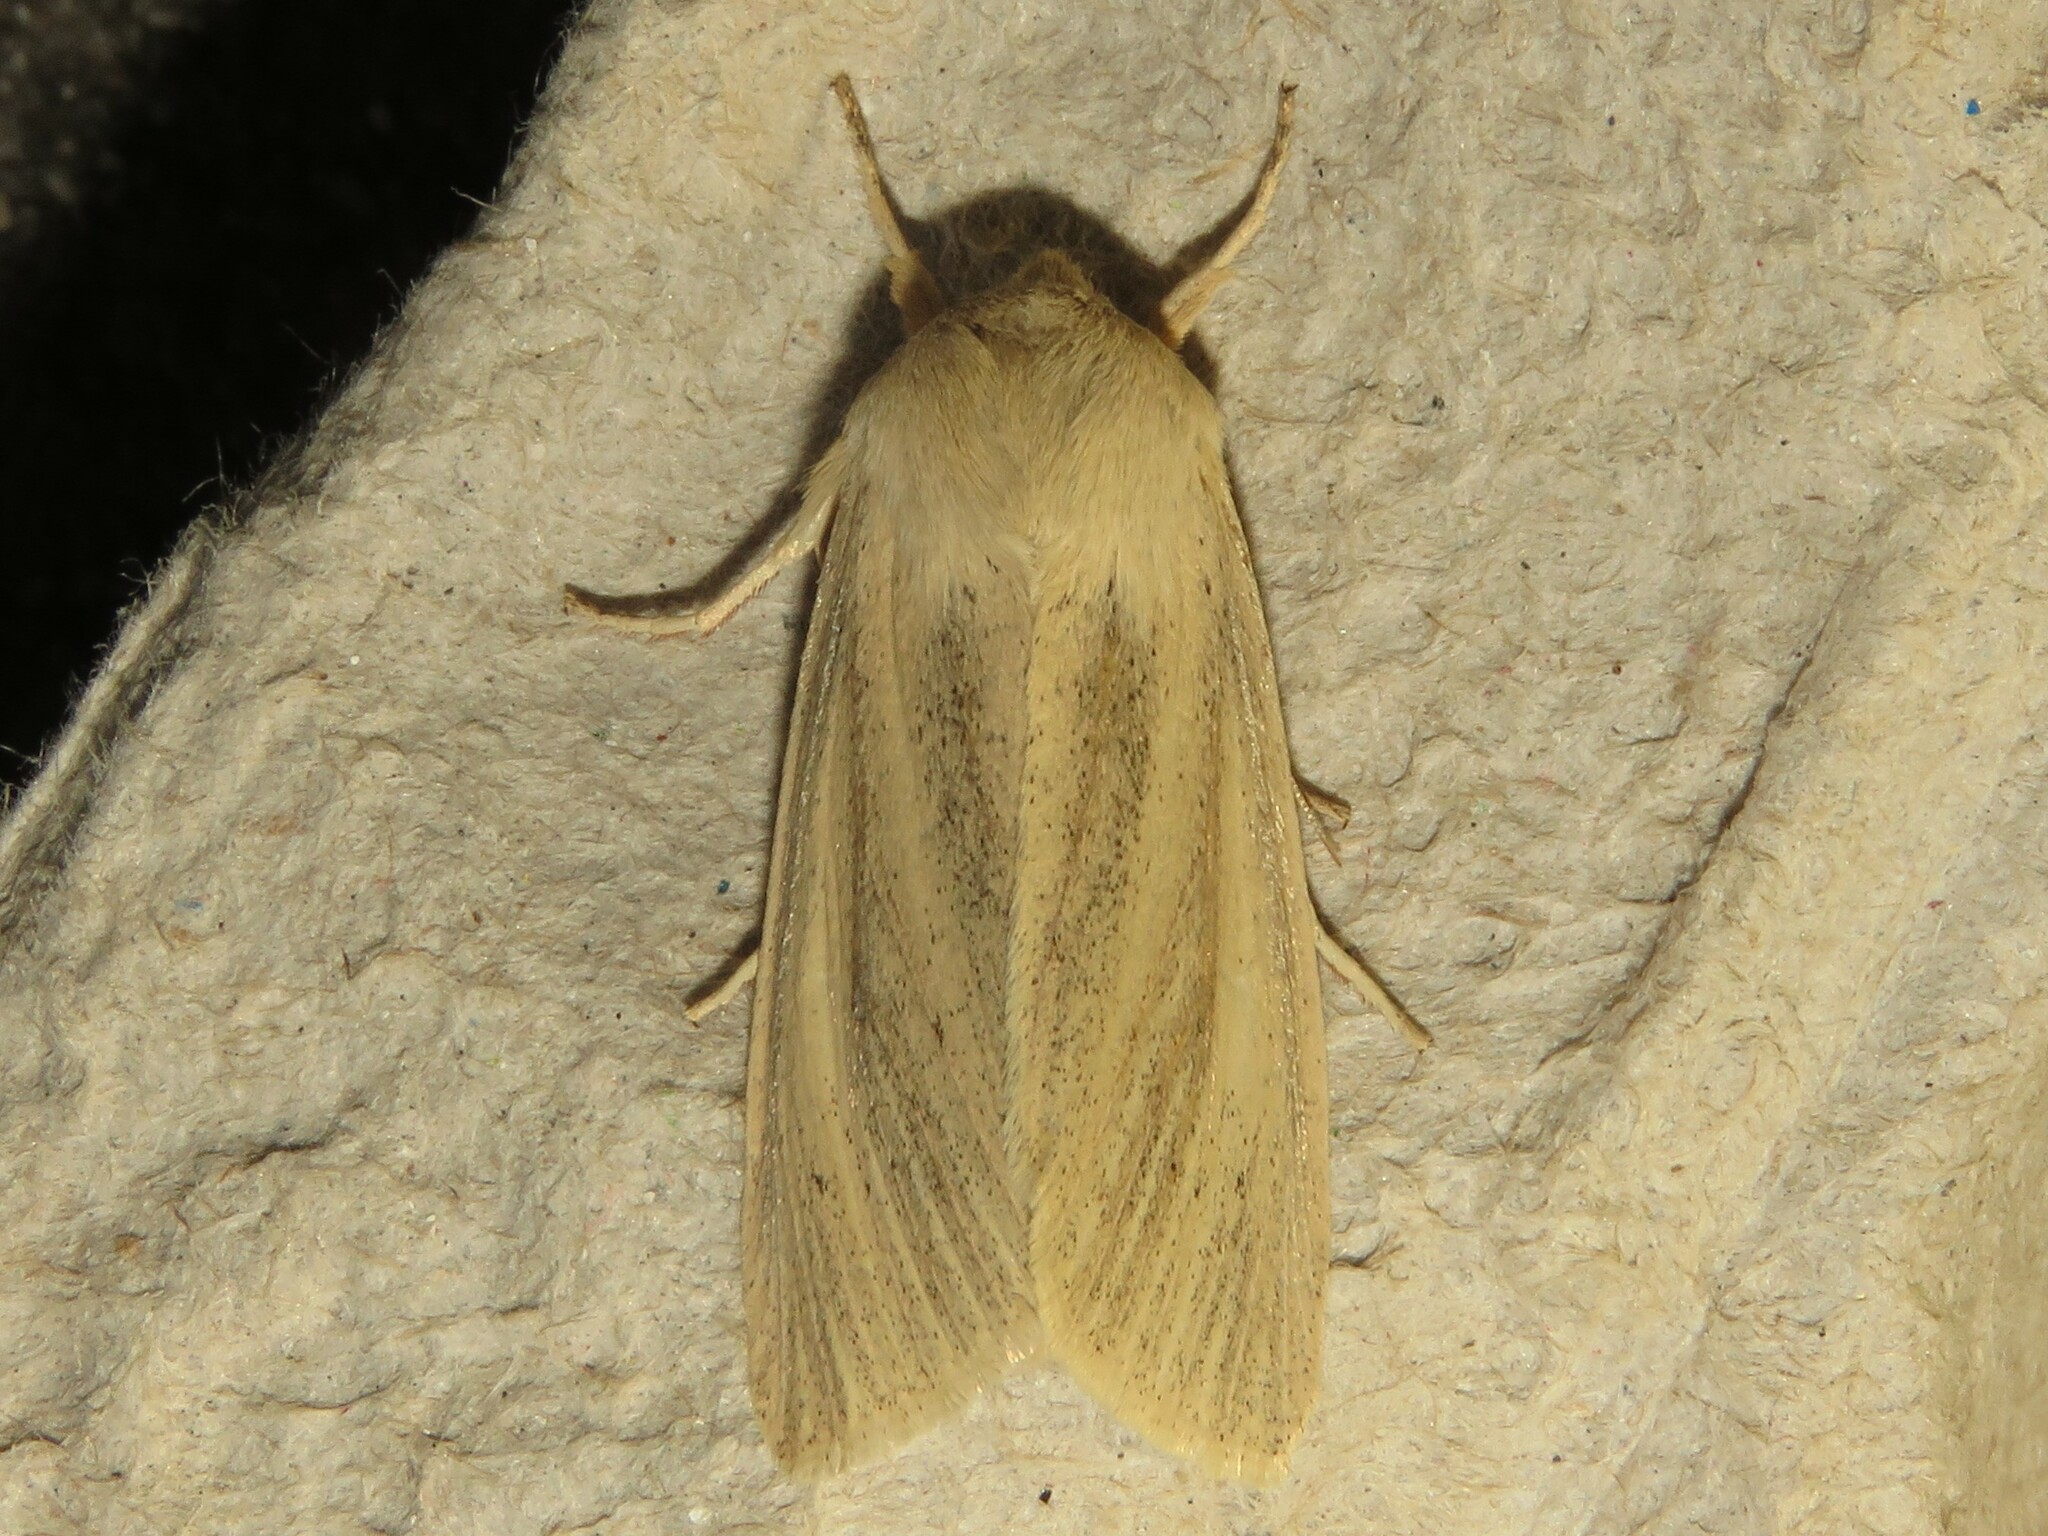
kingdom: Animalia
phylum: Arthropoda
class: Insecta
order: Lepidoptera
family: Noctuidae
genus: Rhizedra
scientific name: Rhizedra lutosa
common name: Large wainscot
